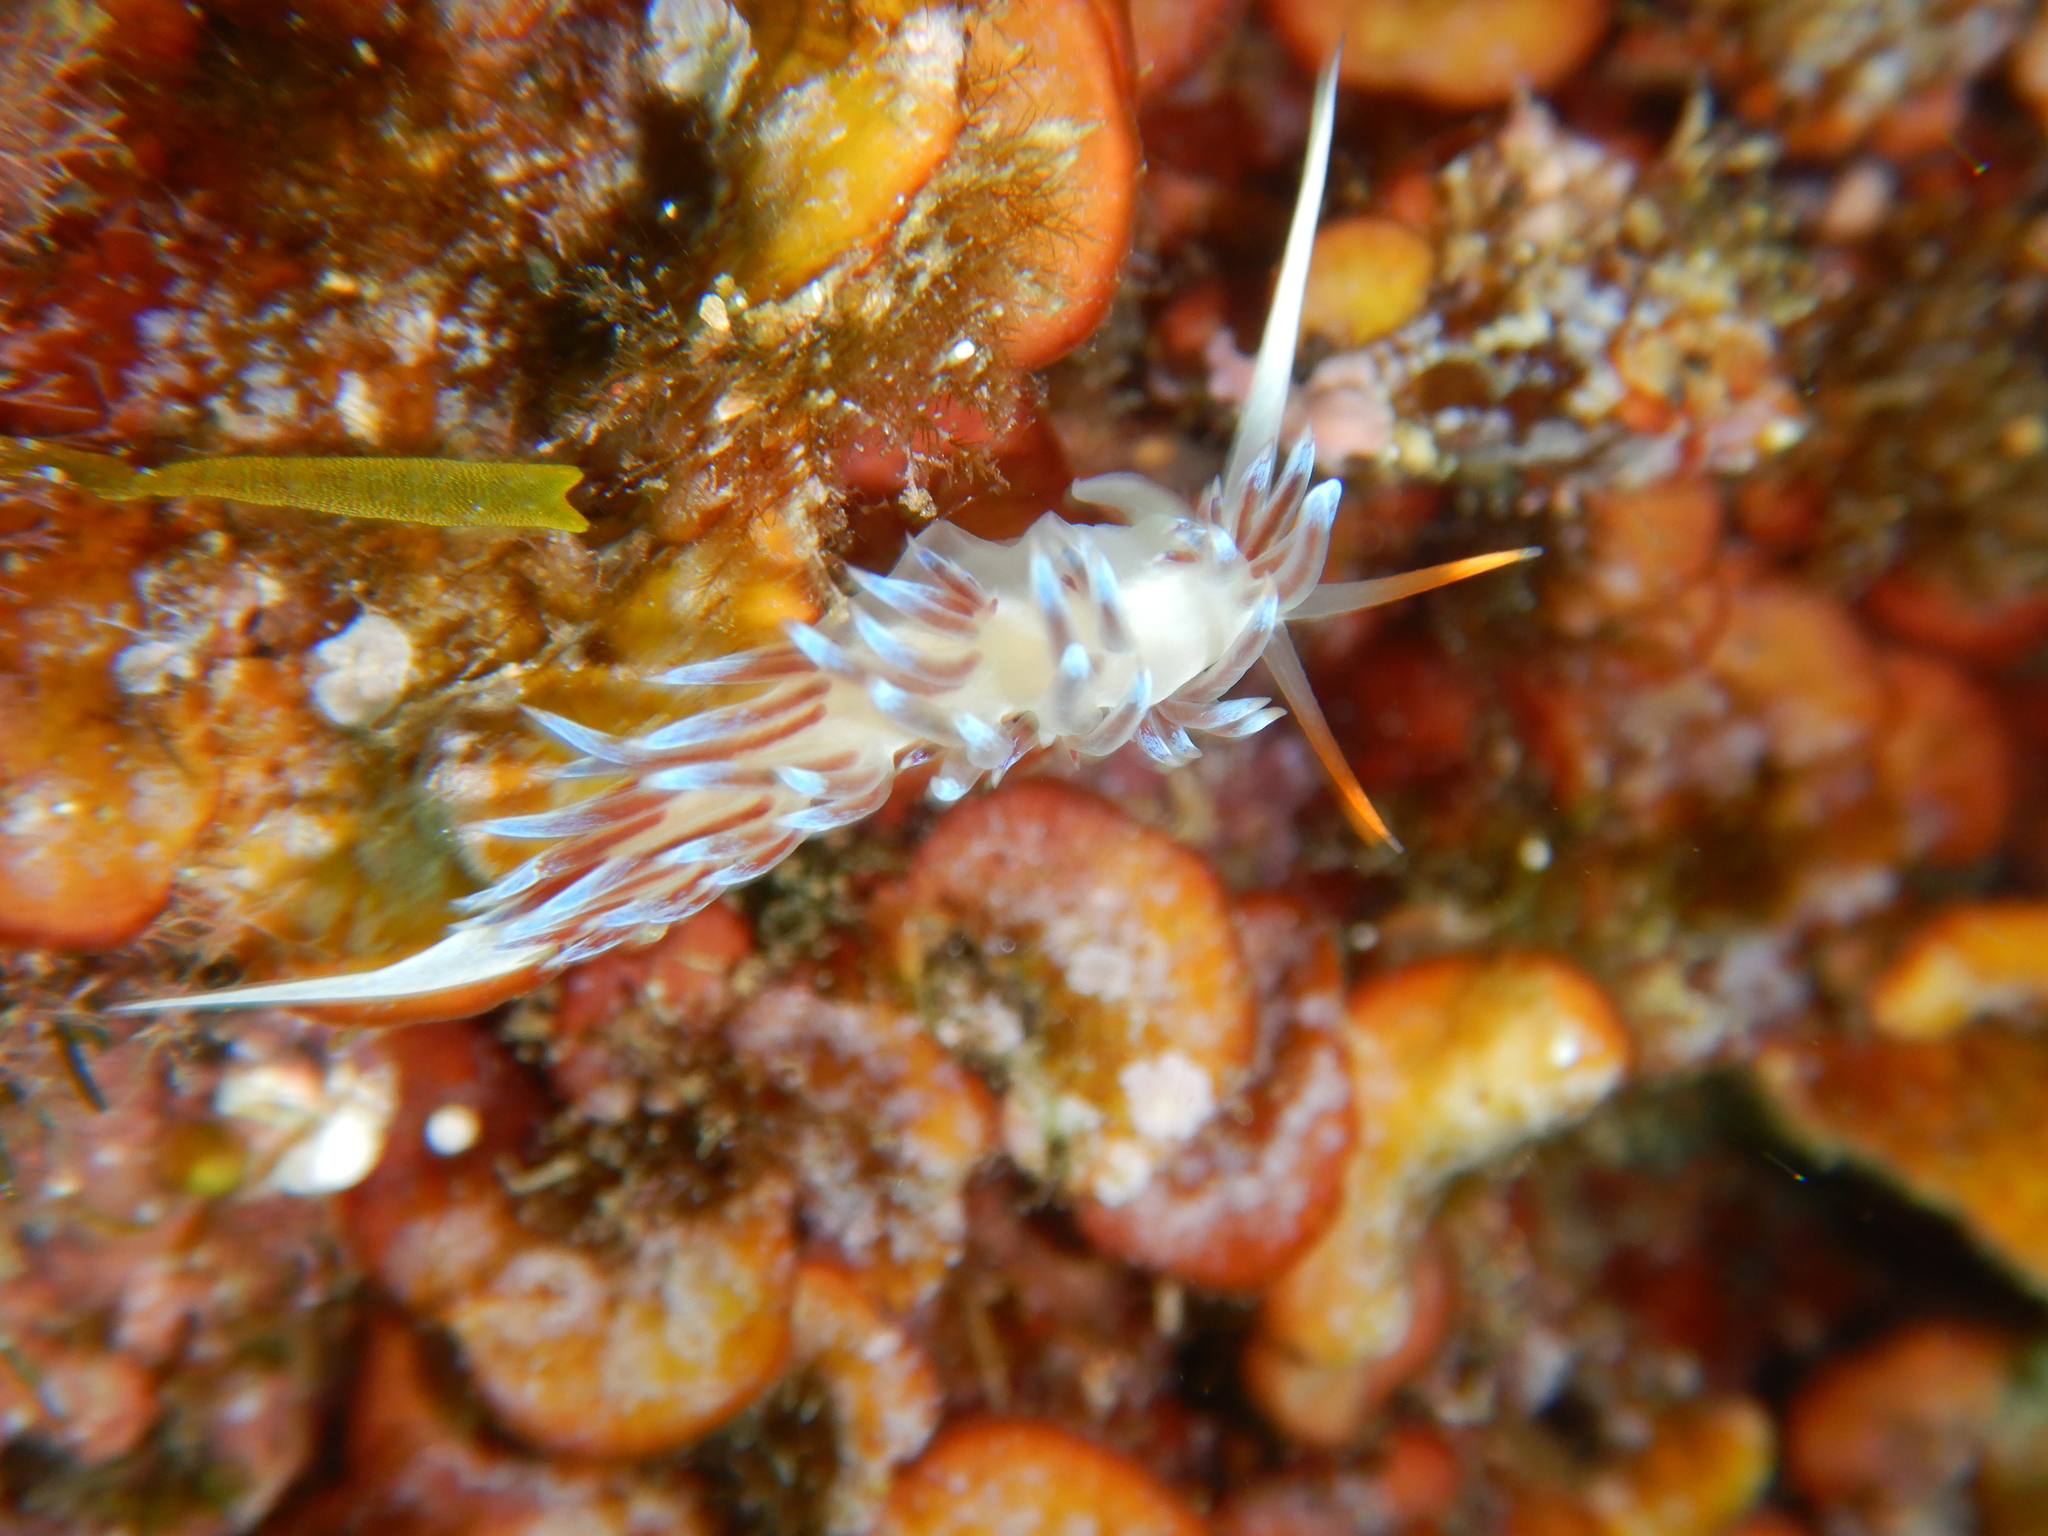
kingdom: Animalia
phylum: Mollusca
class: Gastropoda
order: Nudibranchia
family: Facelinidae
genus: Cratena
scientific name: Cratena peregrina
